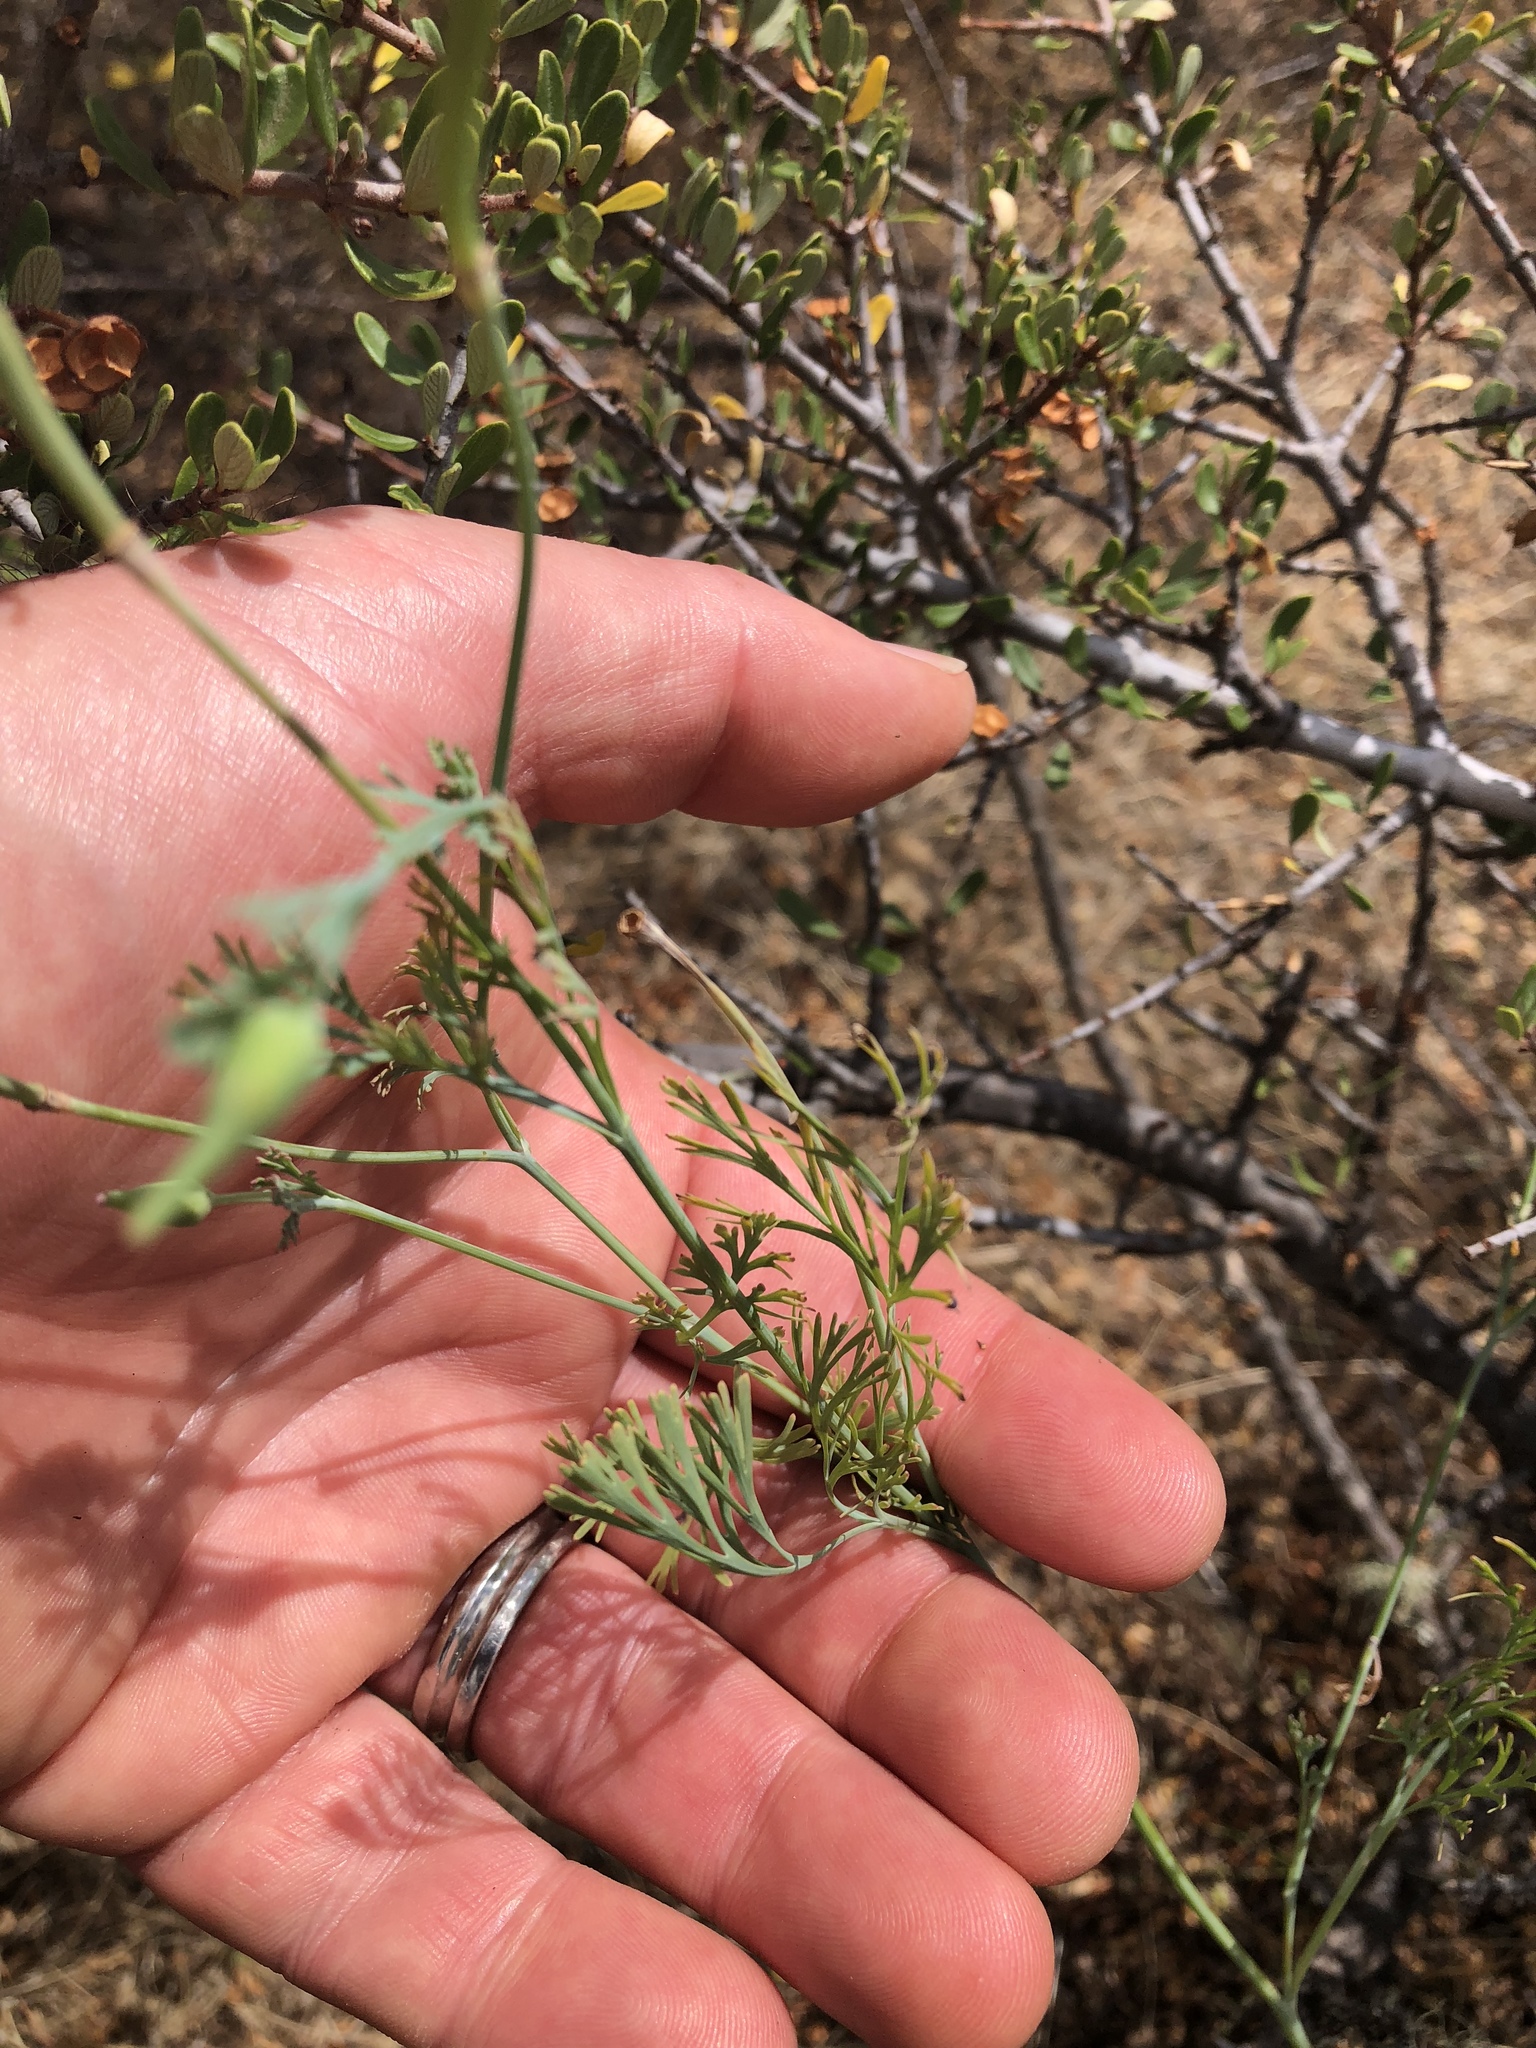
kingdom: Plantae
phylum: Tracheophyta
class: Magnoliopsida
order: Ranunculales
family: Papaveraceae
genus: Eschscholzia
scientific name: Eschscholzia californica
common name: California poppy
